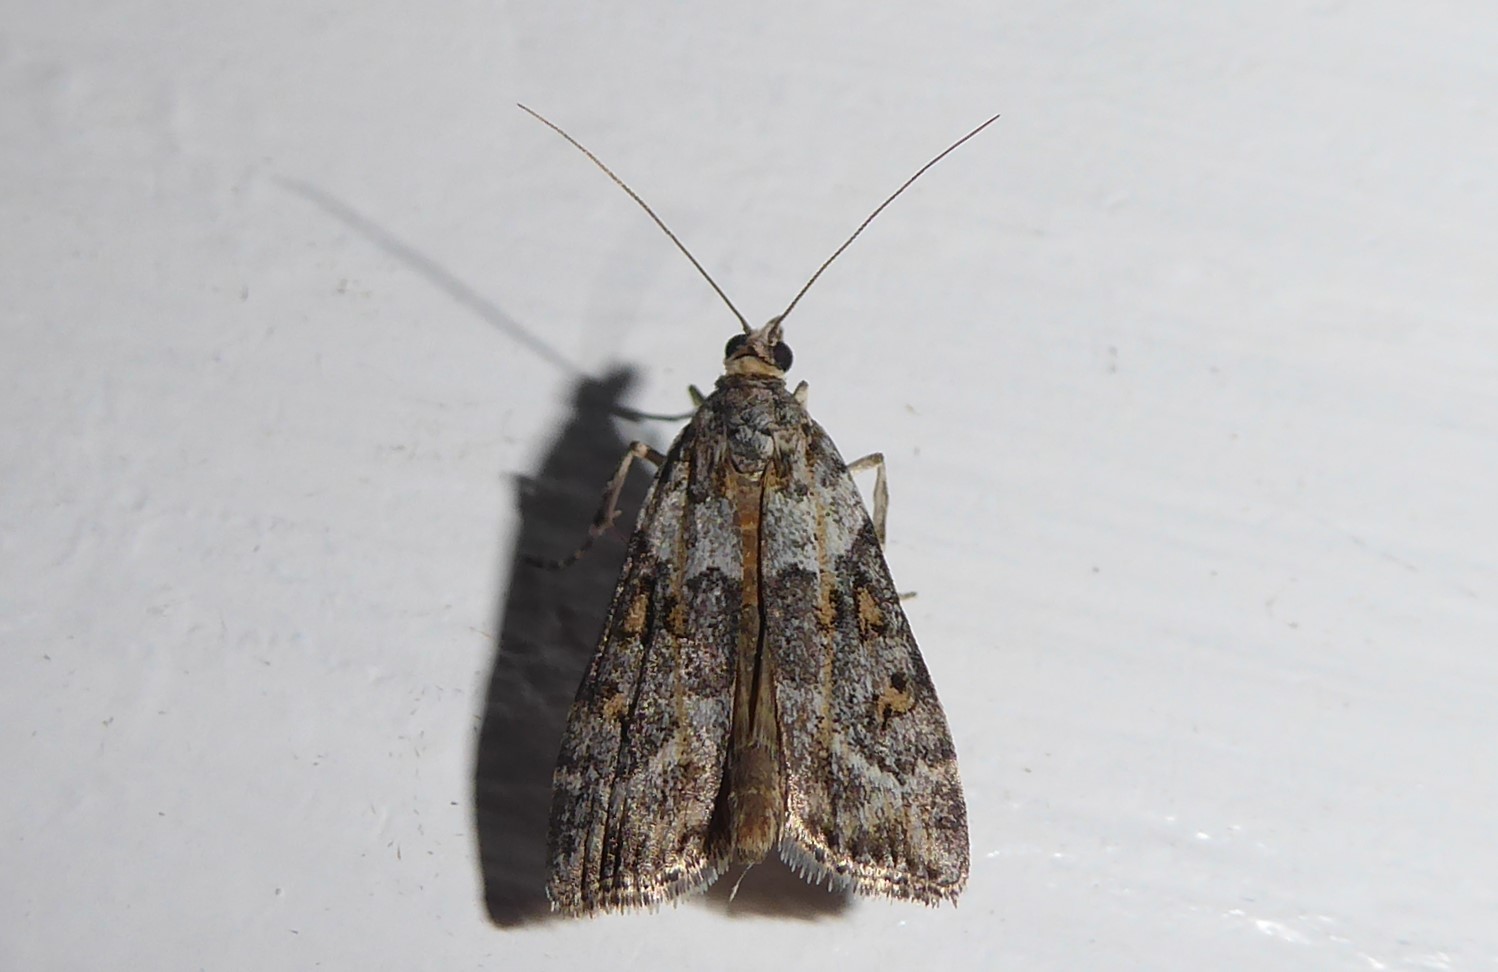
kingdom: Animalia
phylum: Arthropoda
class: Insecta
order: Lepidoptera
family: Crambidae
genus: Eudonia
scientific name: Eudonia diphtheralis
